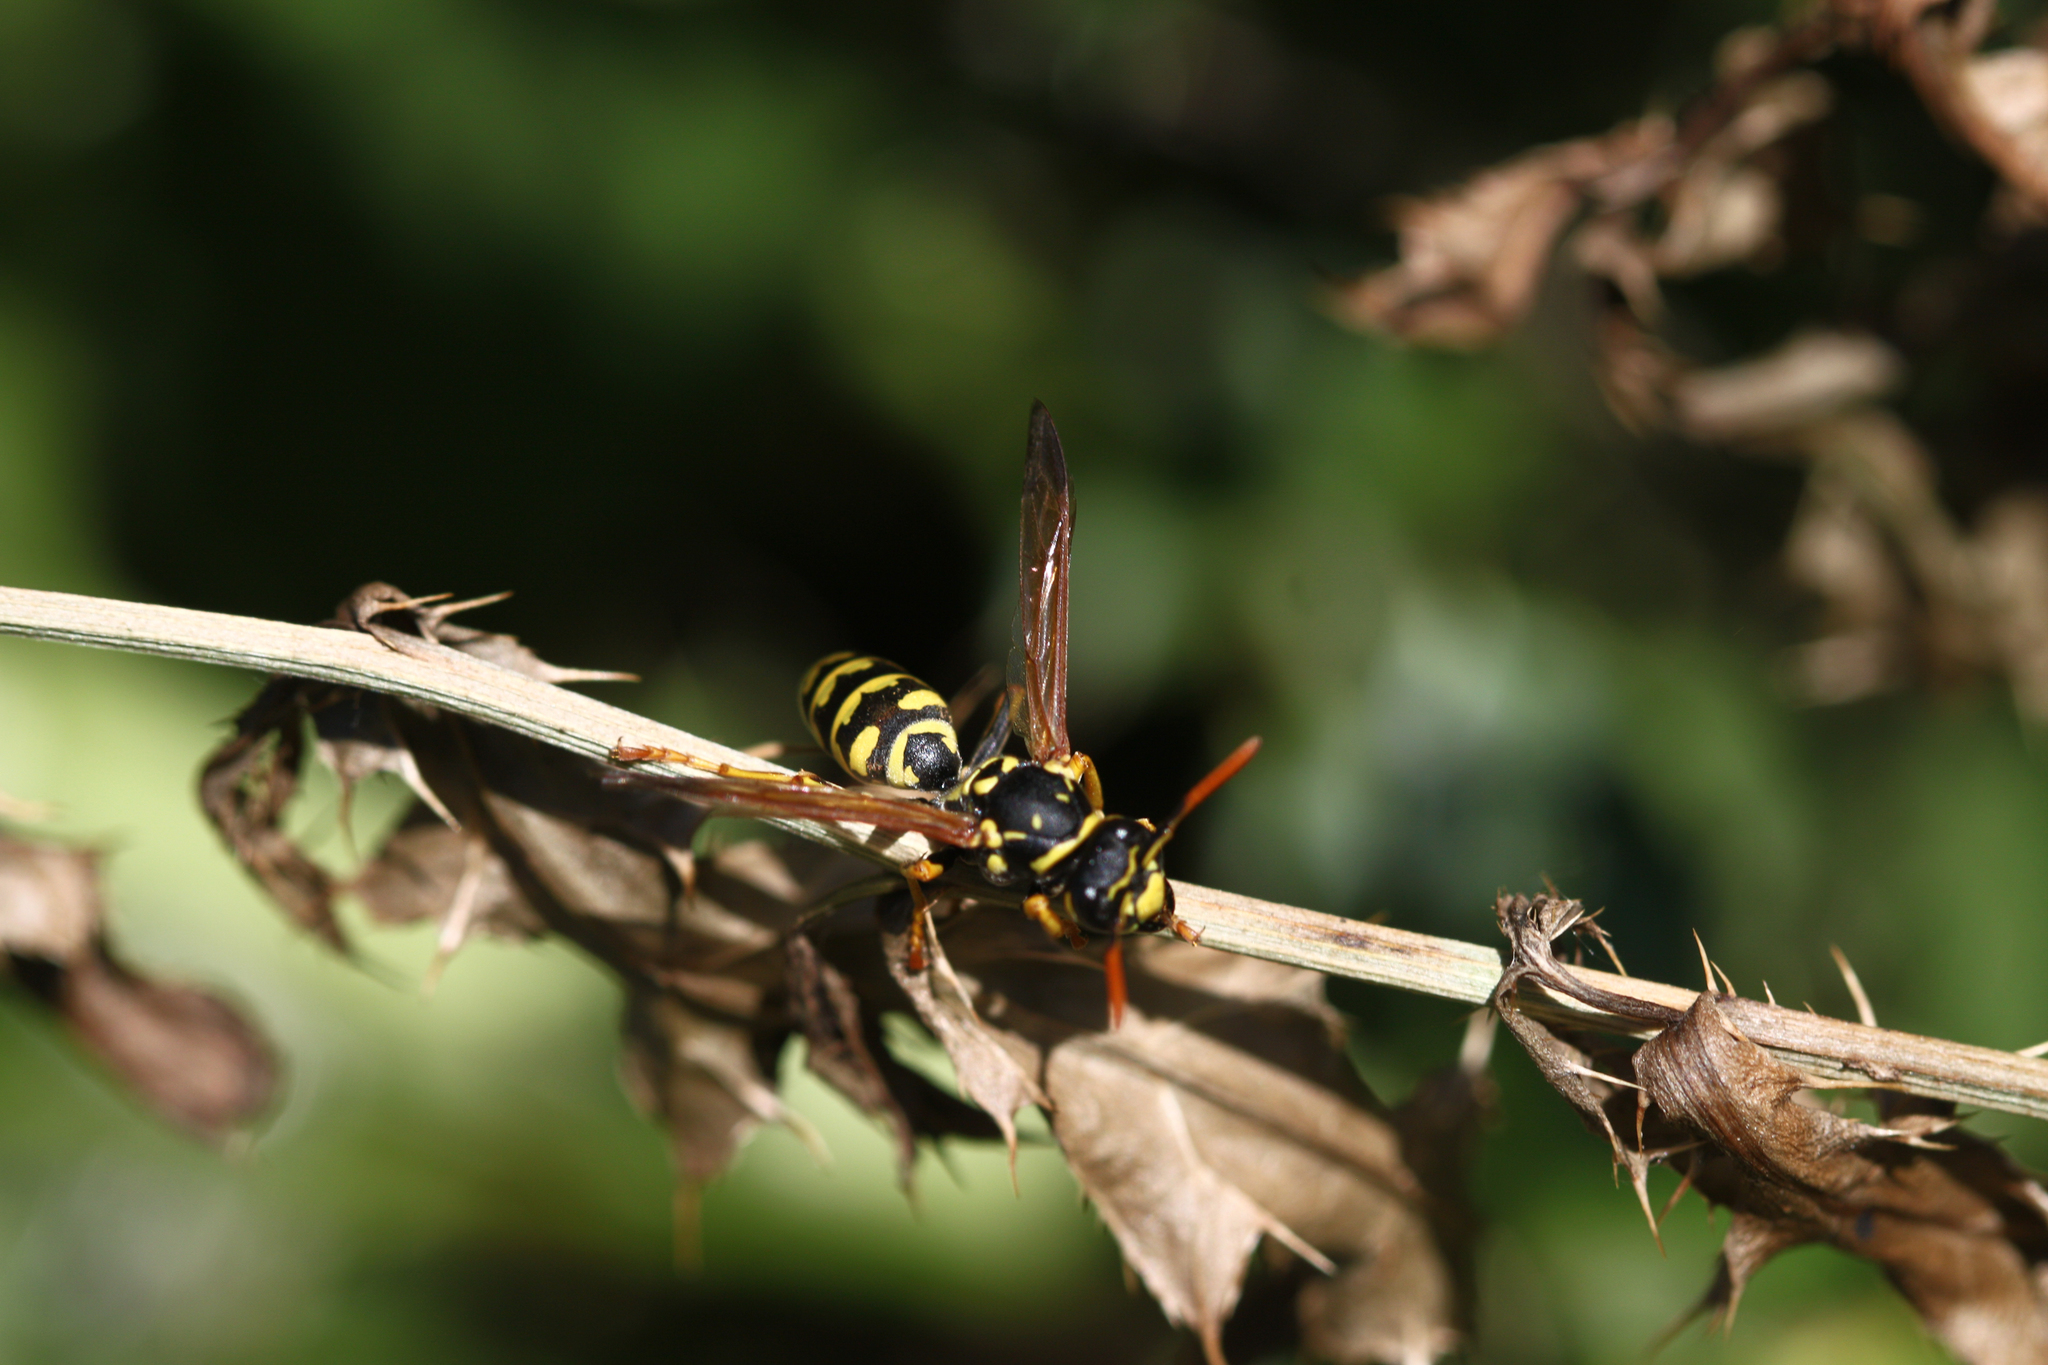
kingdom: Animalia
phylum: Arthropoda
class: Insecta
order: Hymenoptera
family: Eumenidae
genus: Polistes
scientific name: Polistes dominula
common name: Paper wasp
